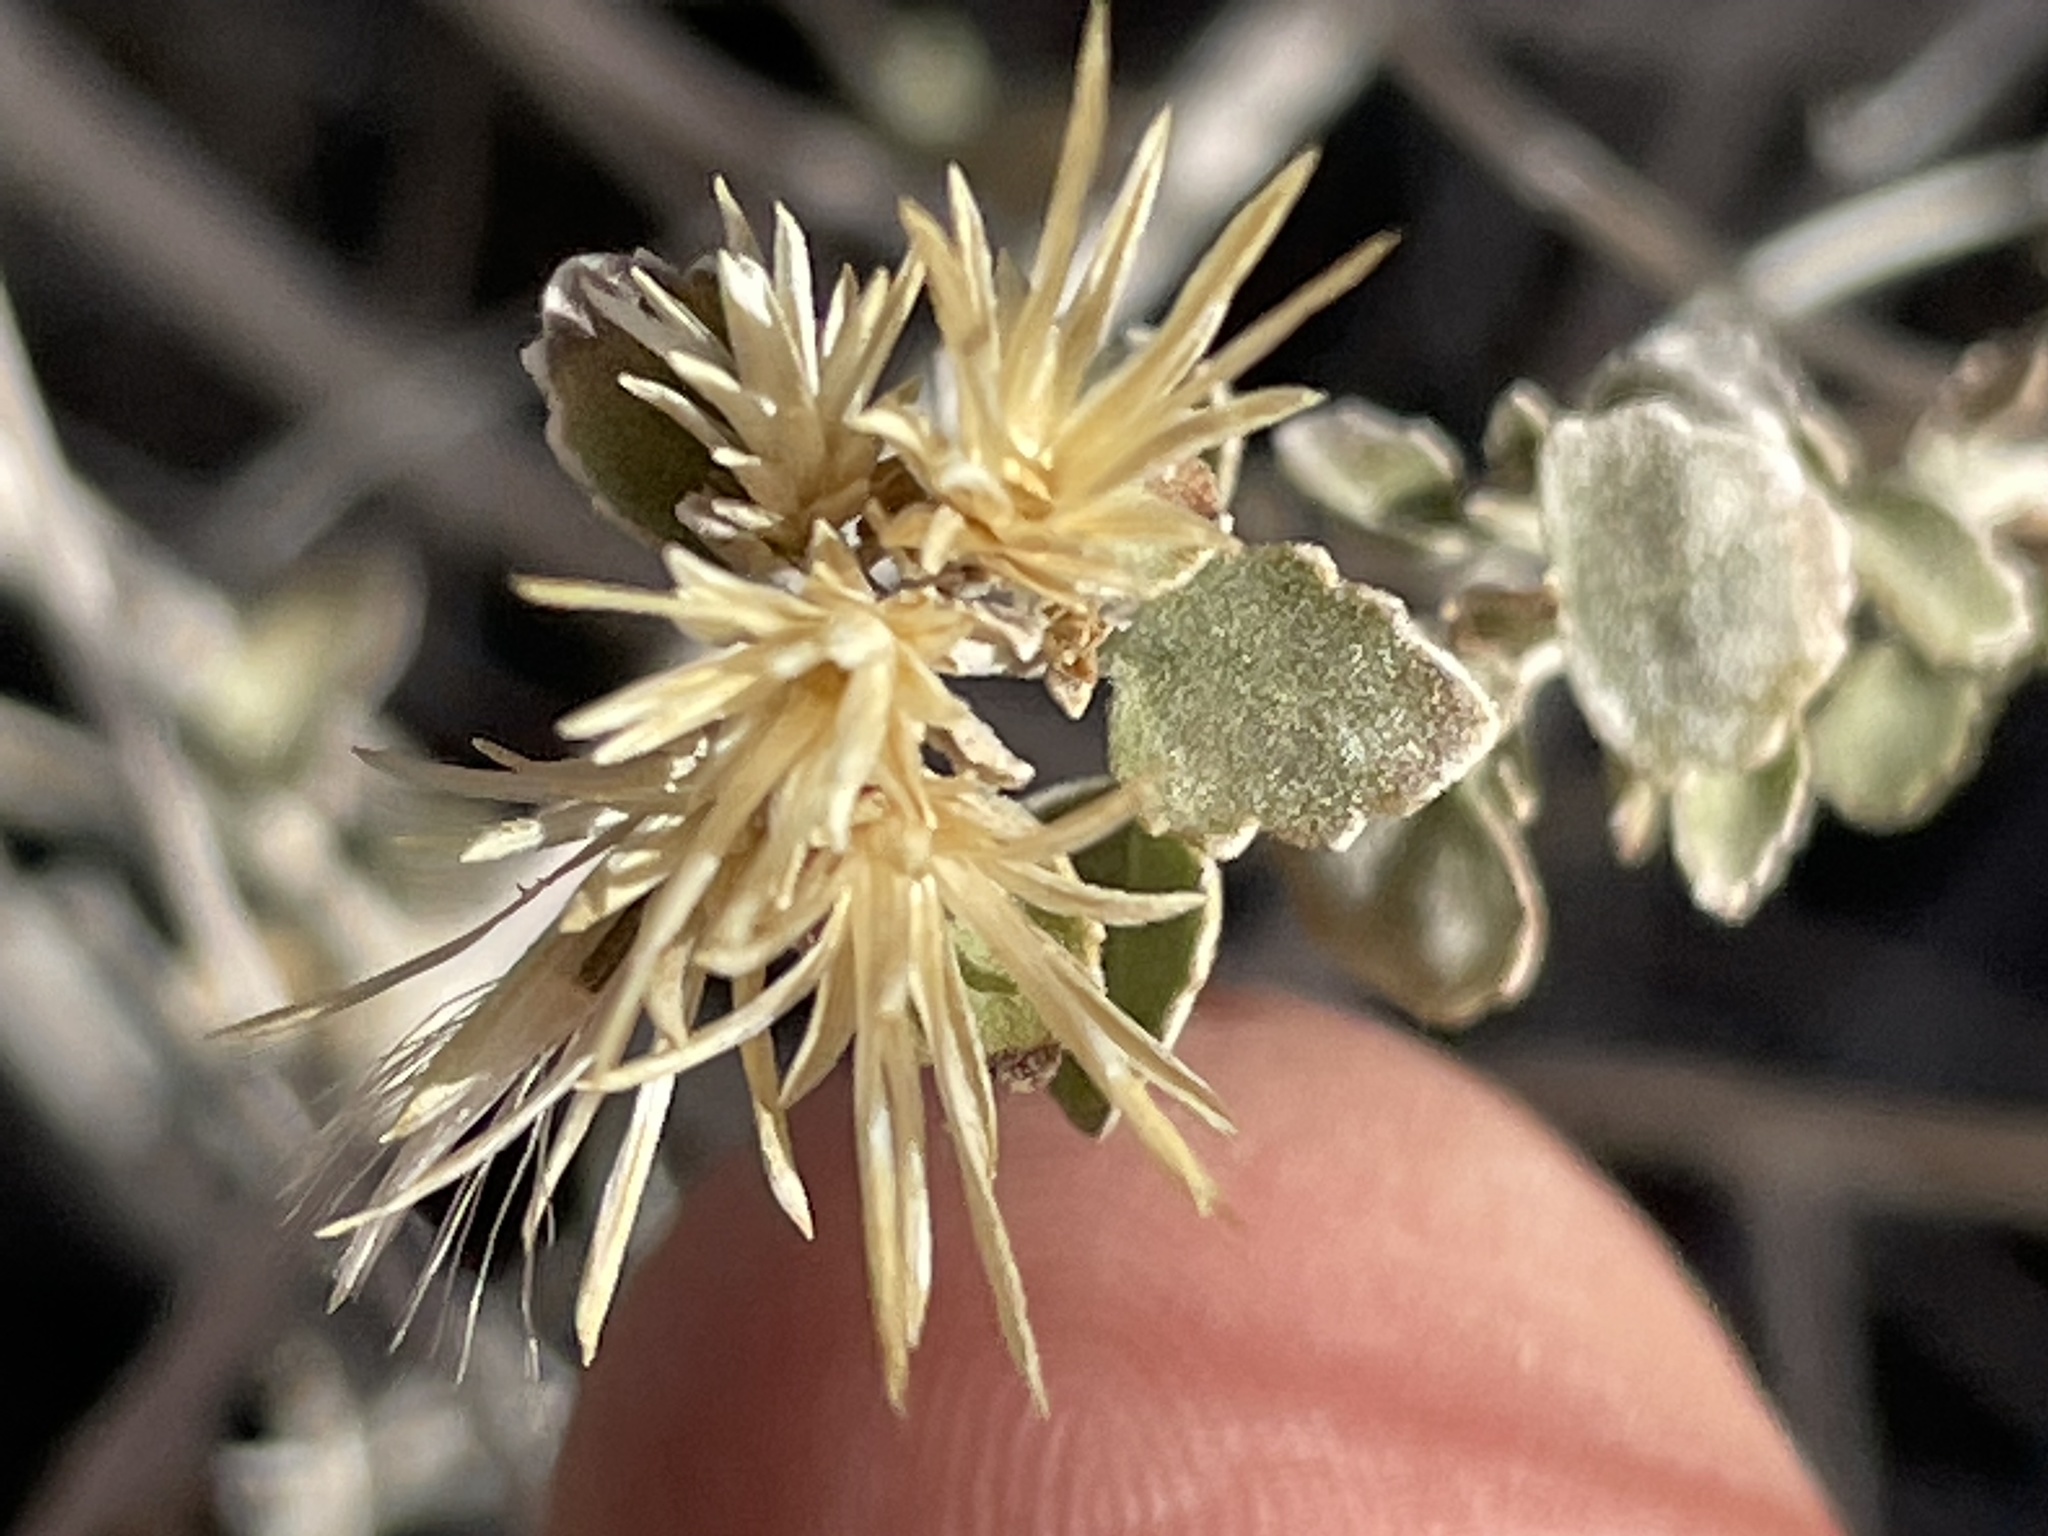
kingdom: Plantae
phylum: Tracheophyta
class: Magnoliopsida
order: Asterales
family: Asteraceae
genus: Brickellia
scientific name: Brickellia desertorum
